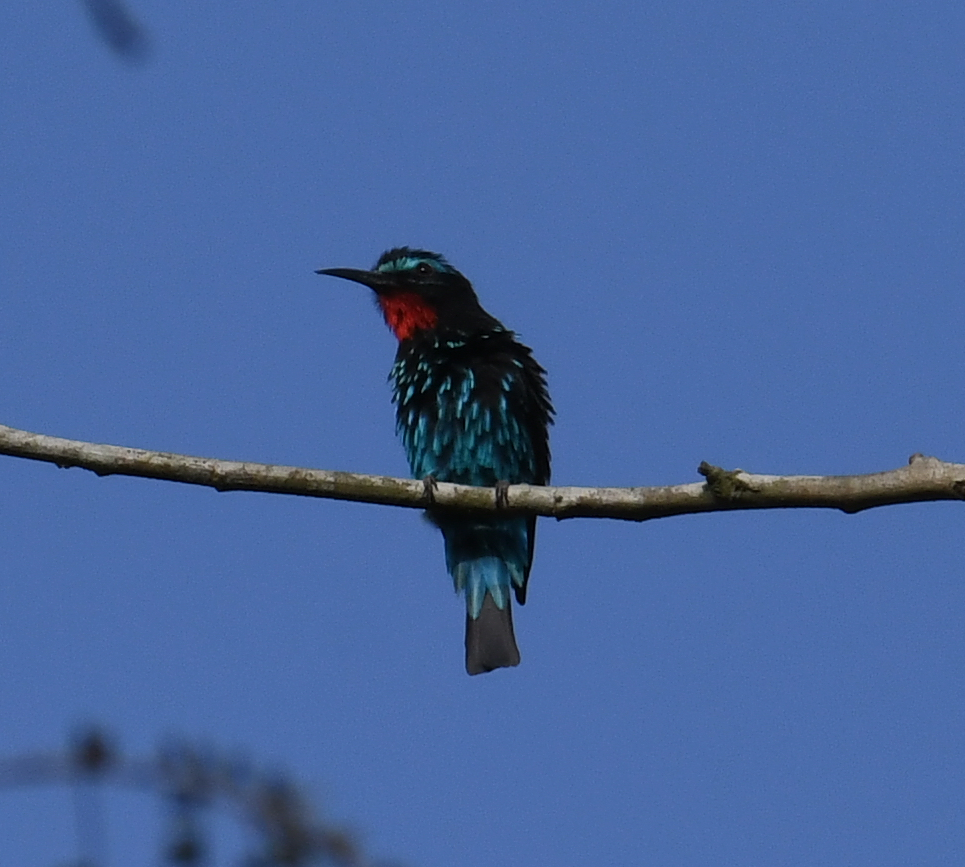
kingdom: Animalia
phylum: Chordata
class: Aves
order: Coraciiformes
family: Meropidae
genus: Merops
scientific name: Merops gularis
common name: Black bee-eater
